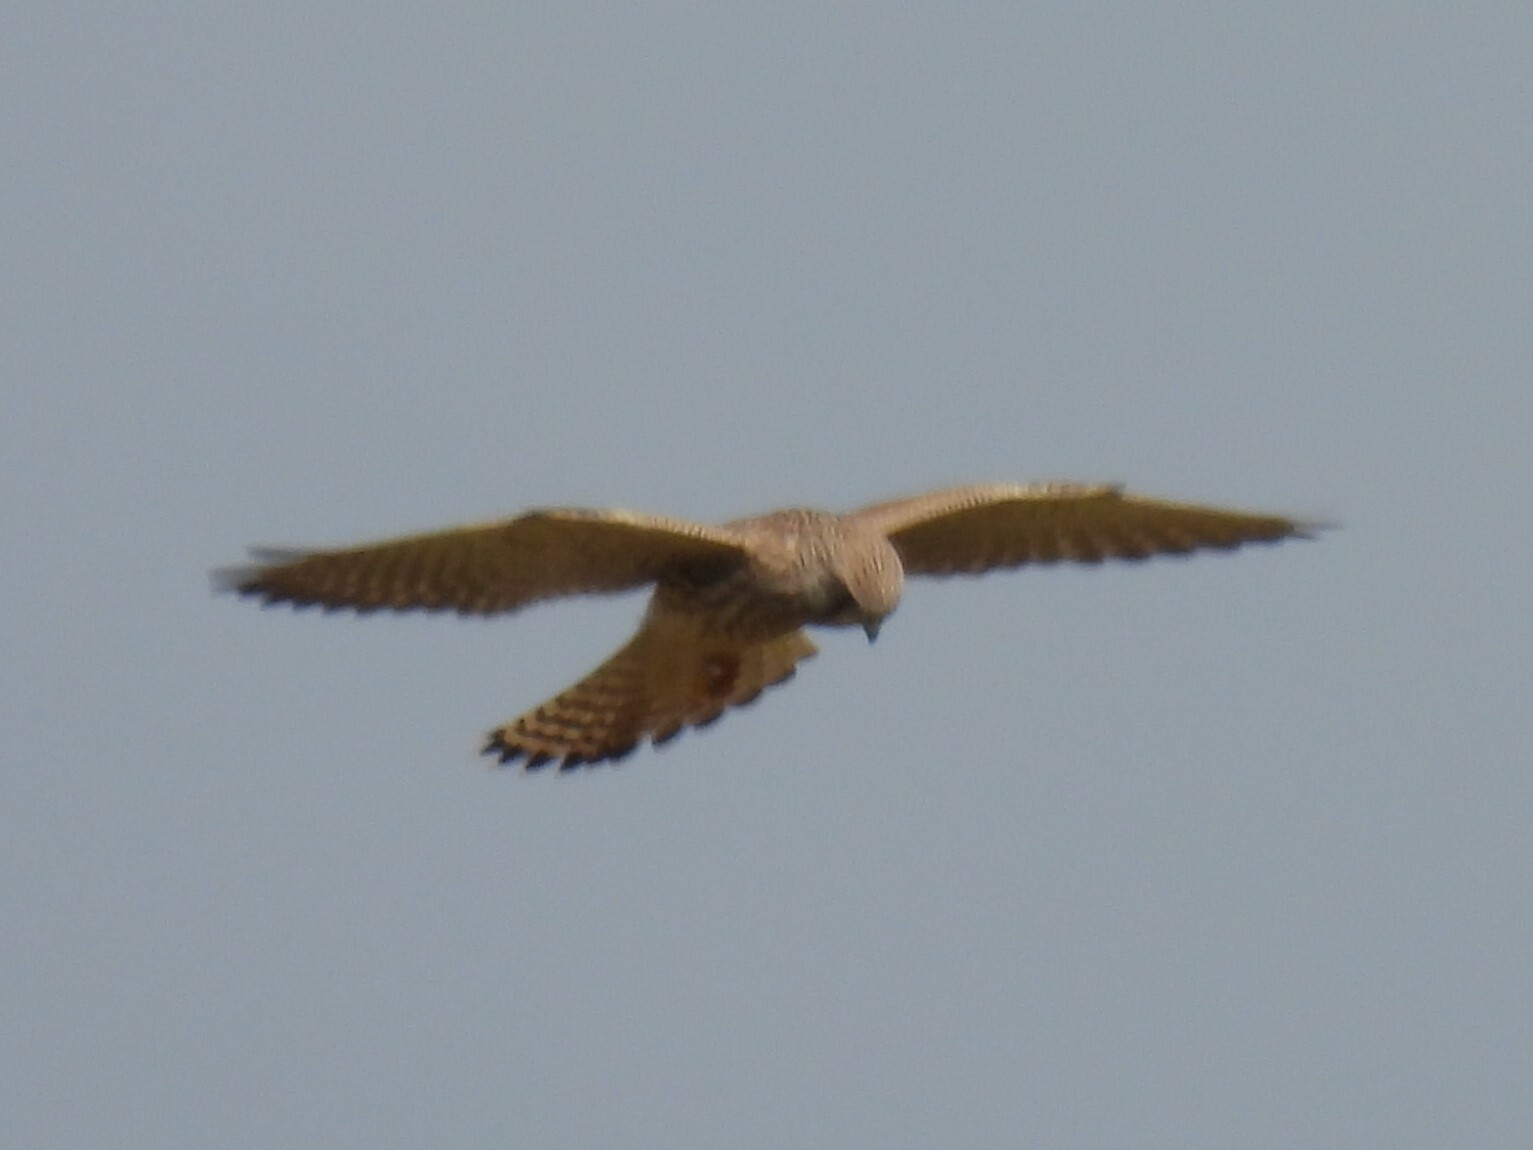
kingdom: Animalia
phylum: Chordata
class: Aves
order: Falconiformes
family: Falconidae
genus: Falco
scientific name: Falco tinnunculus
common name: Common kestrel
